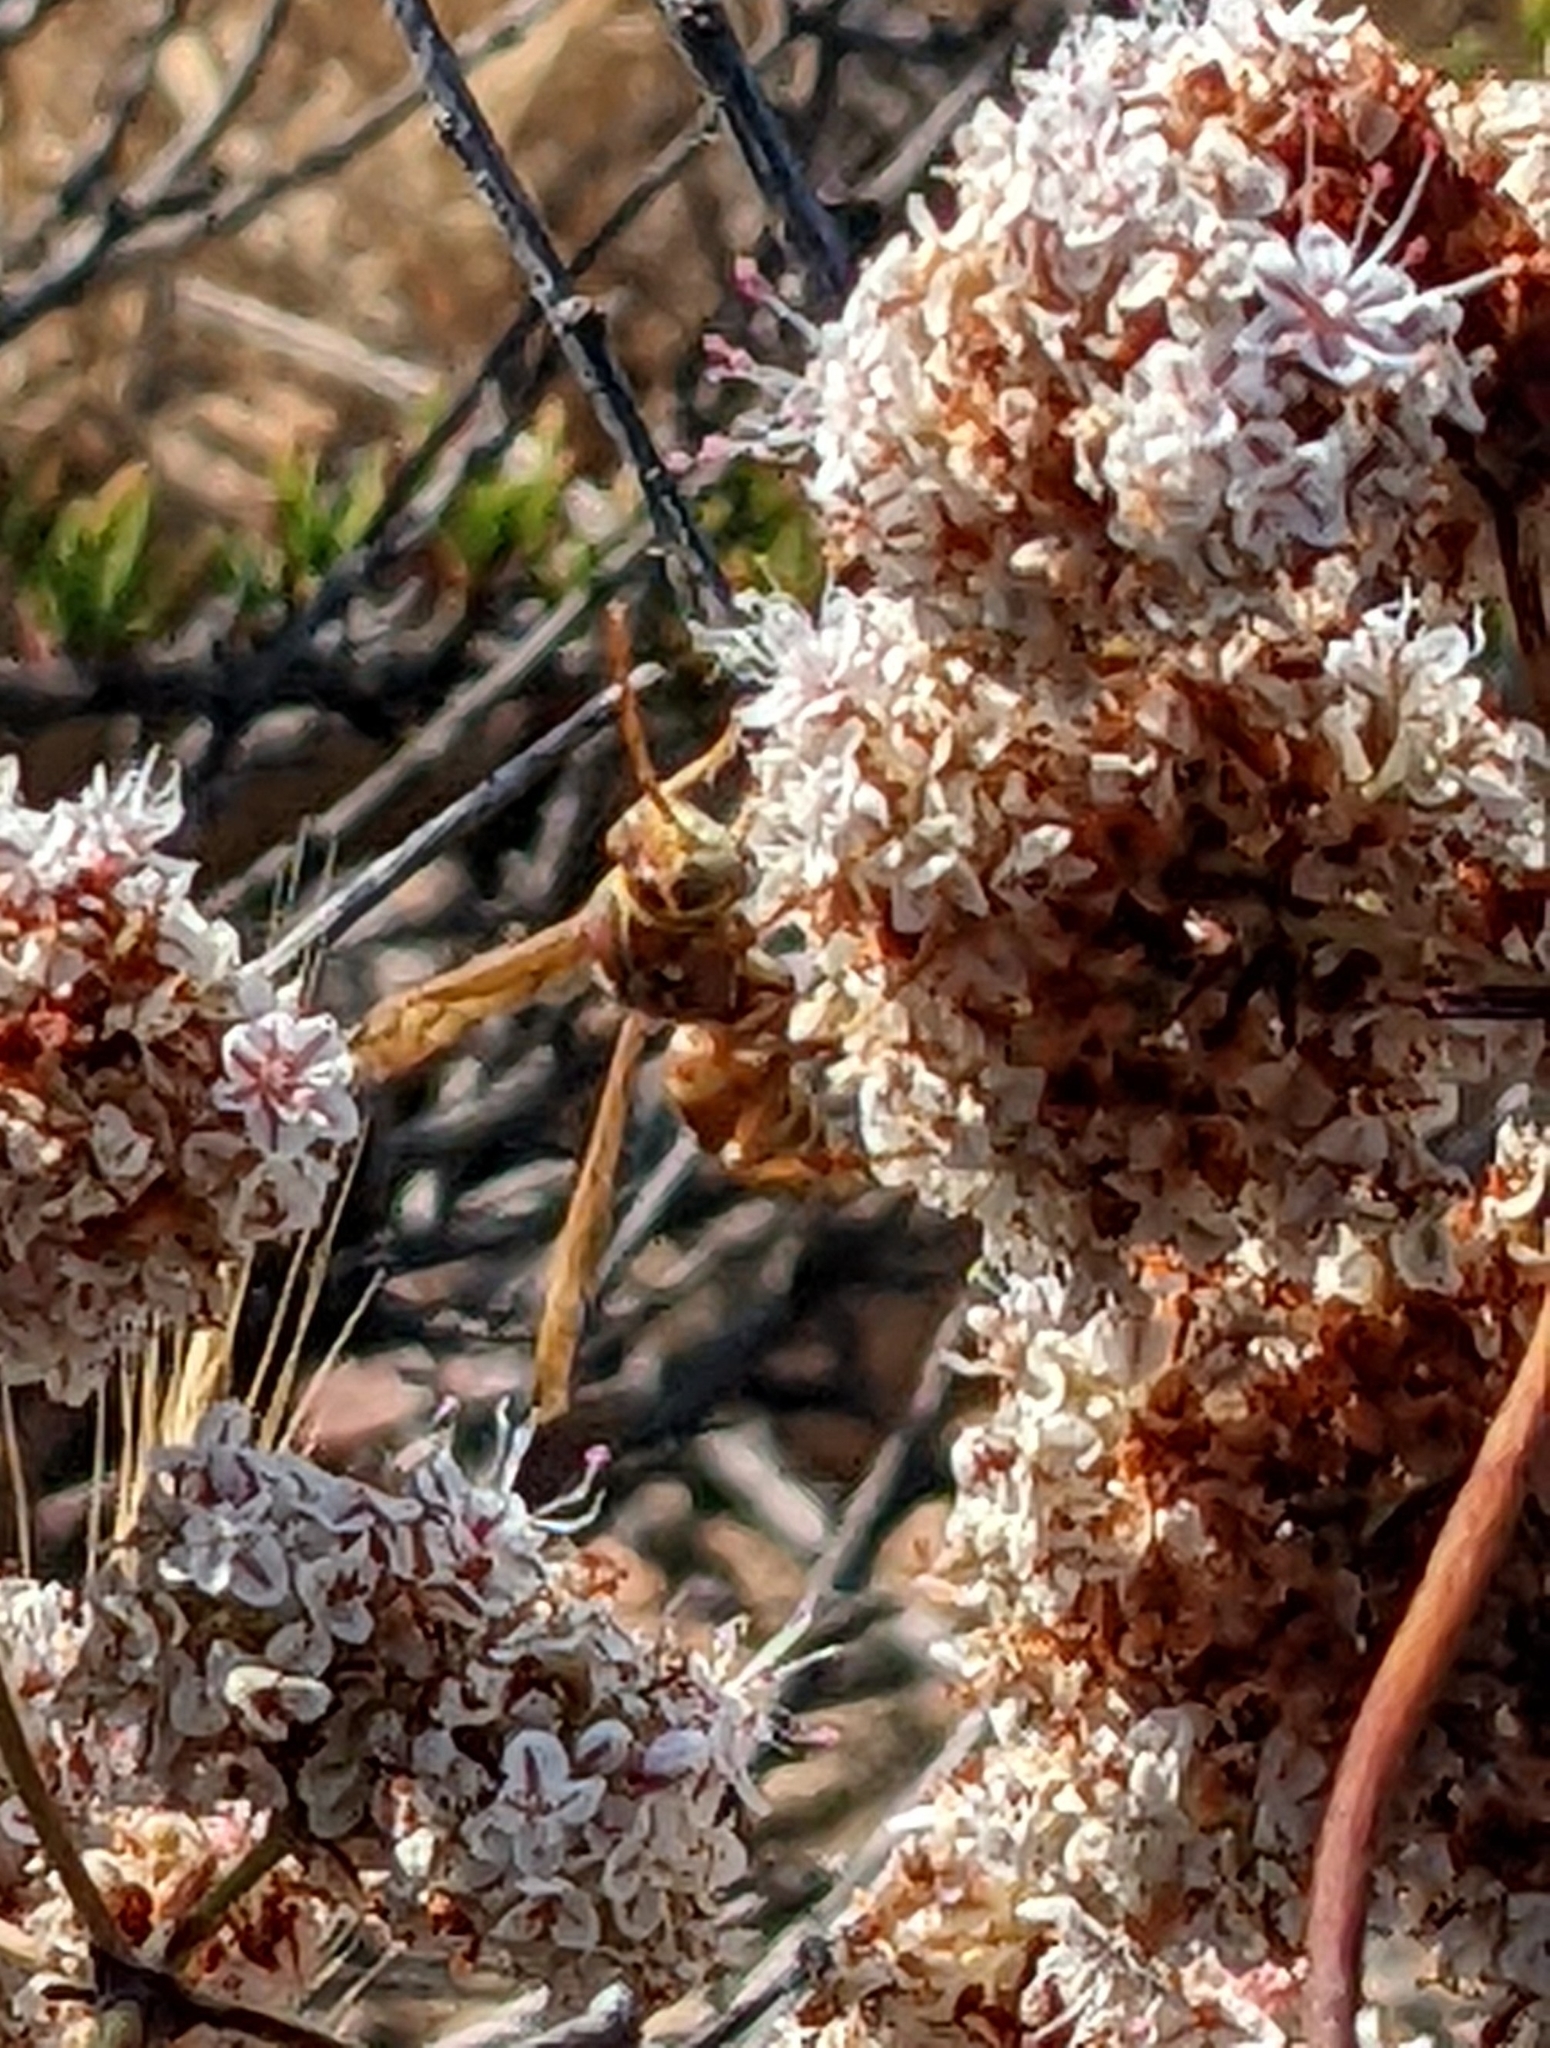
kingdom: Animalia
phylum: Arthropoda
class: Insecta
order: Hymenoptera
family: Vespidae
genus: Fuscopolistes
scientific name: Fuscopolistes
